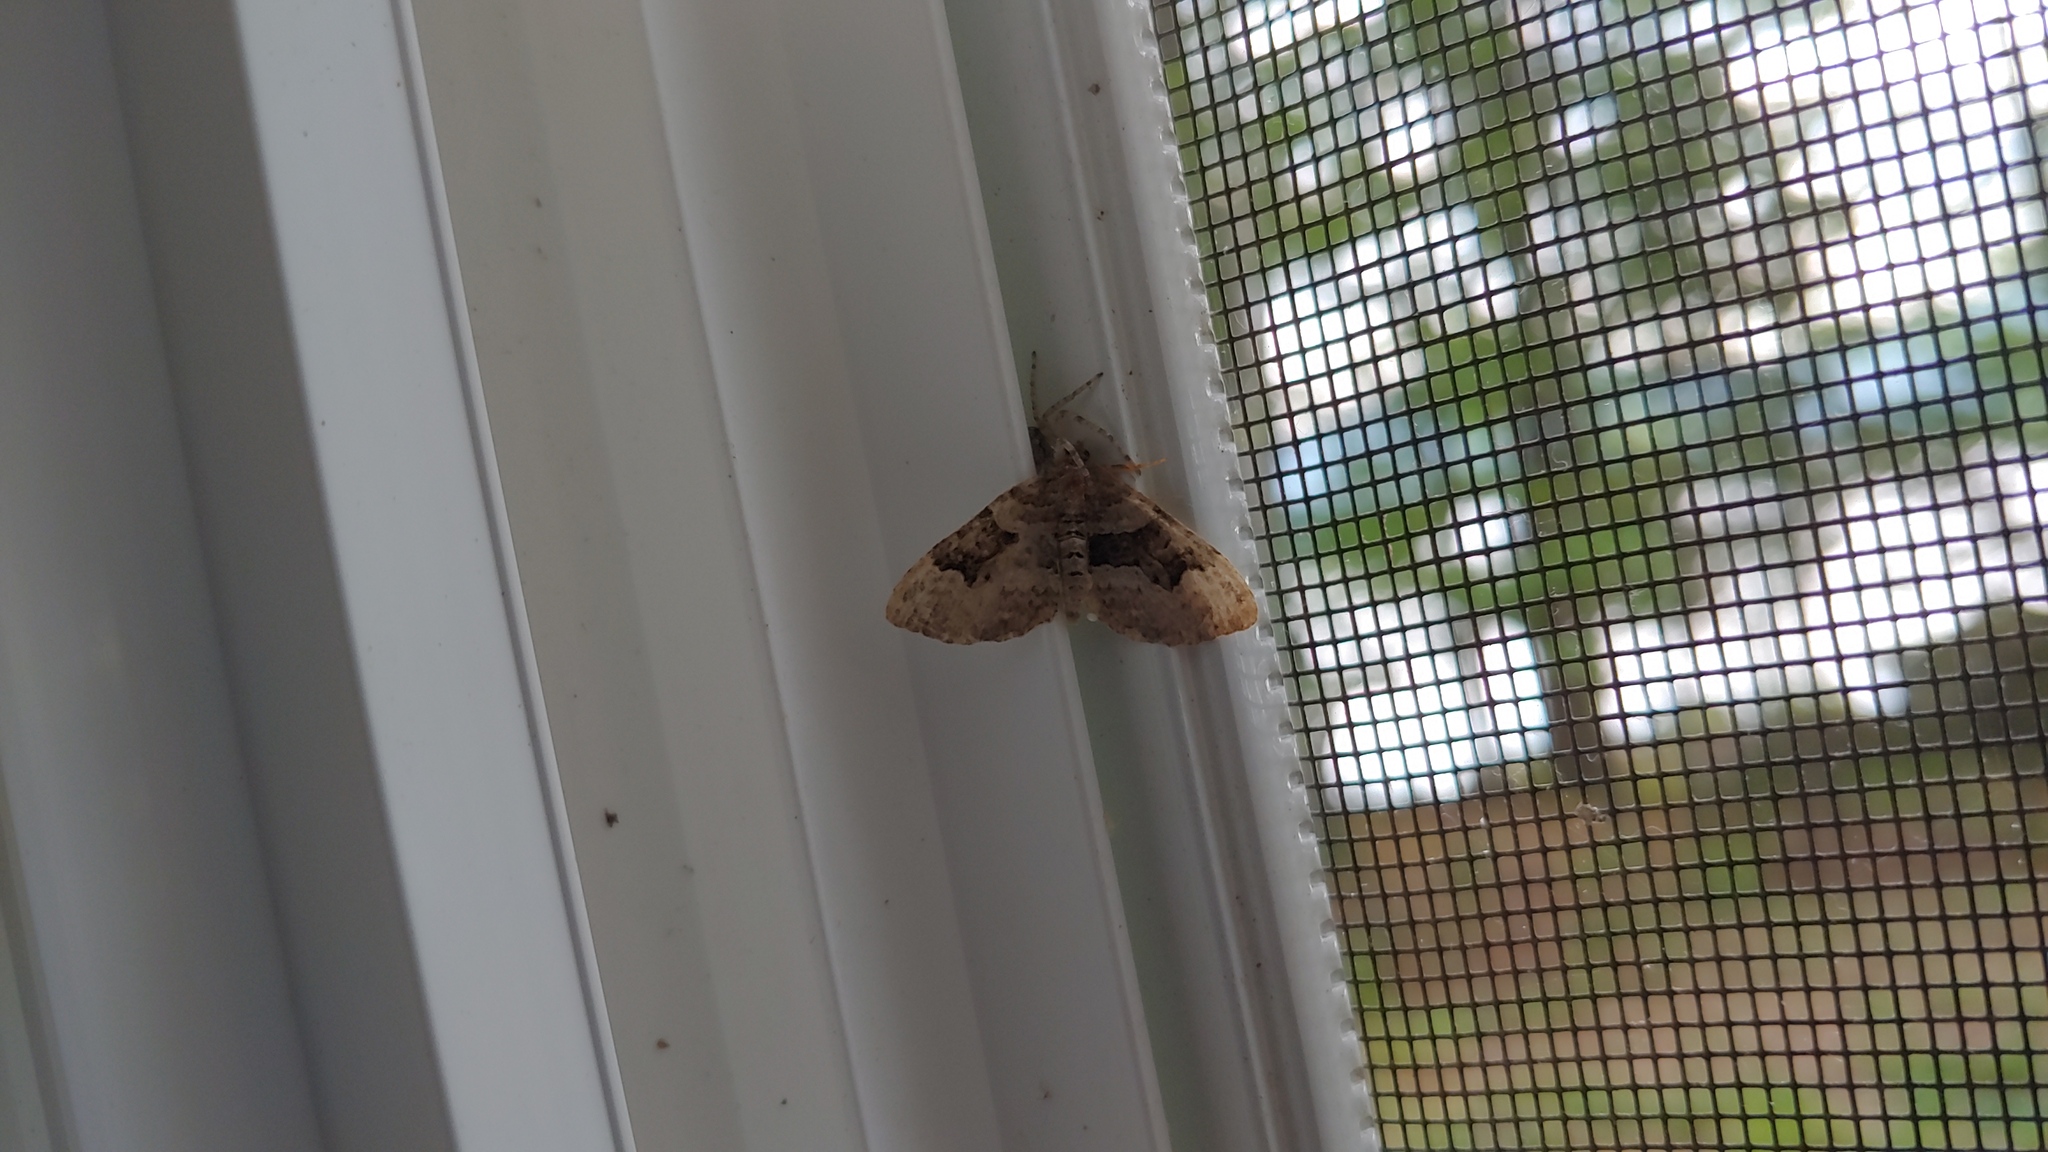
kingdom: Animalia
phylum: Arthropoda
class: Insecta
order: Lepidoptera
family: Geometridae
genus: Xanthorhoe
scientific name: Xanthorhoe lacustrata
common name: Toothed brown carpet
